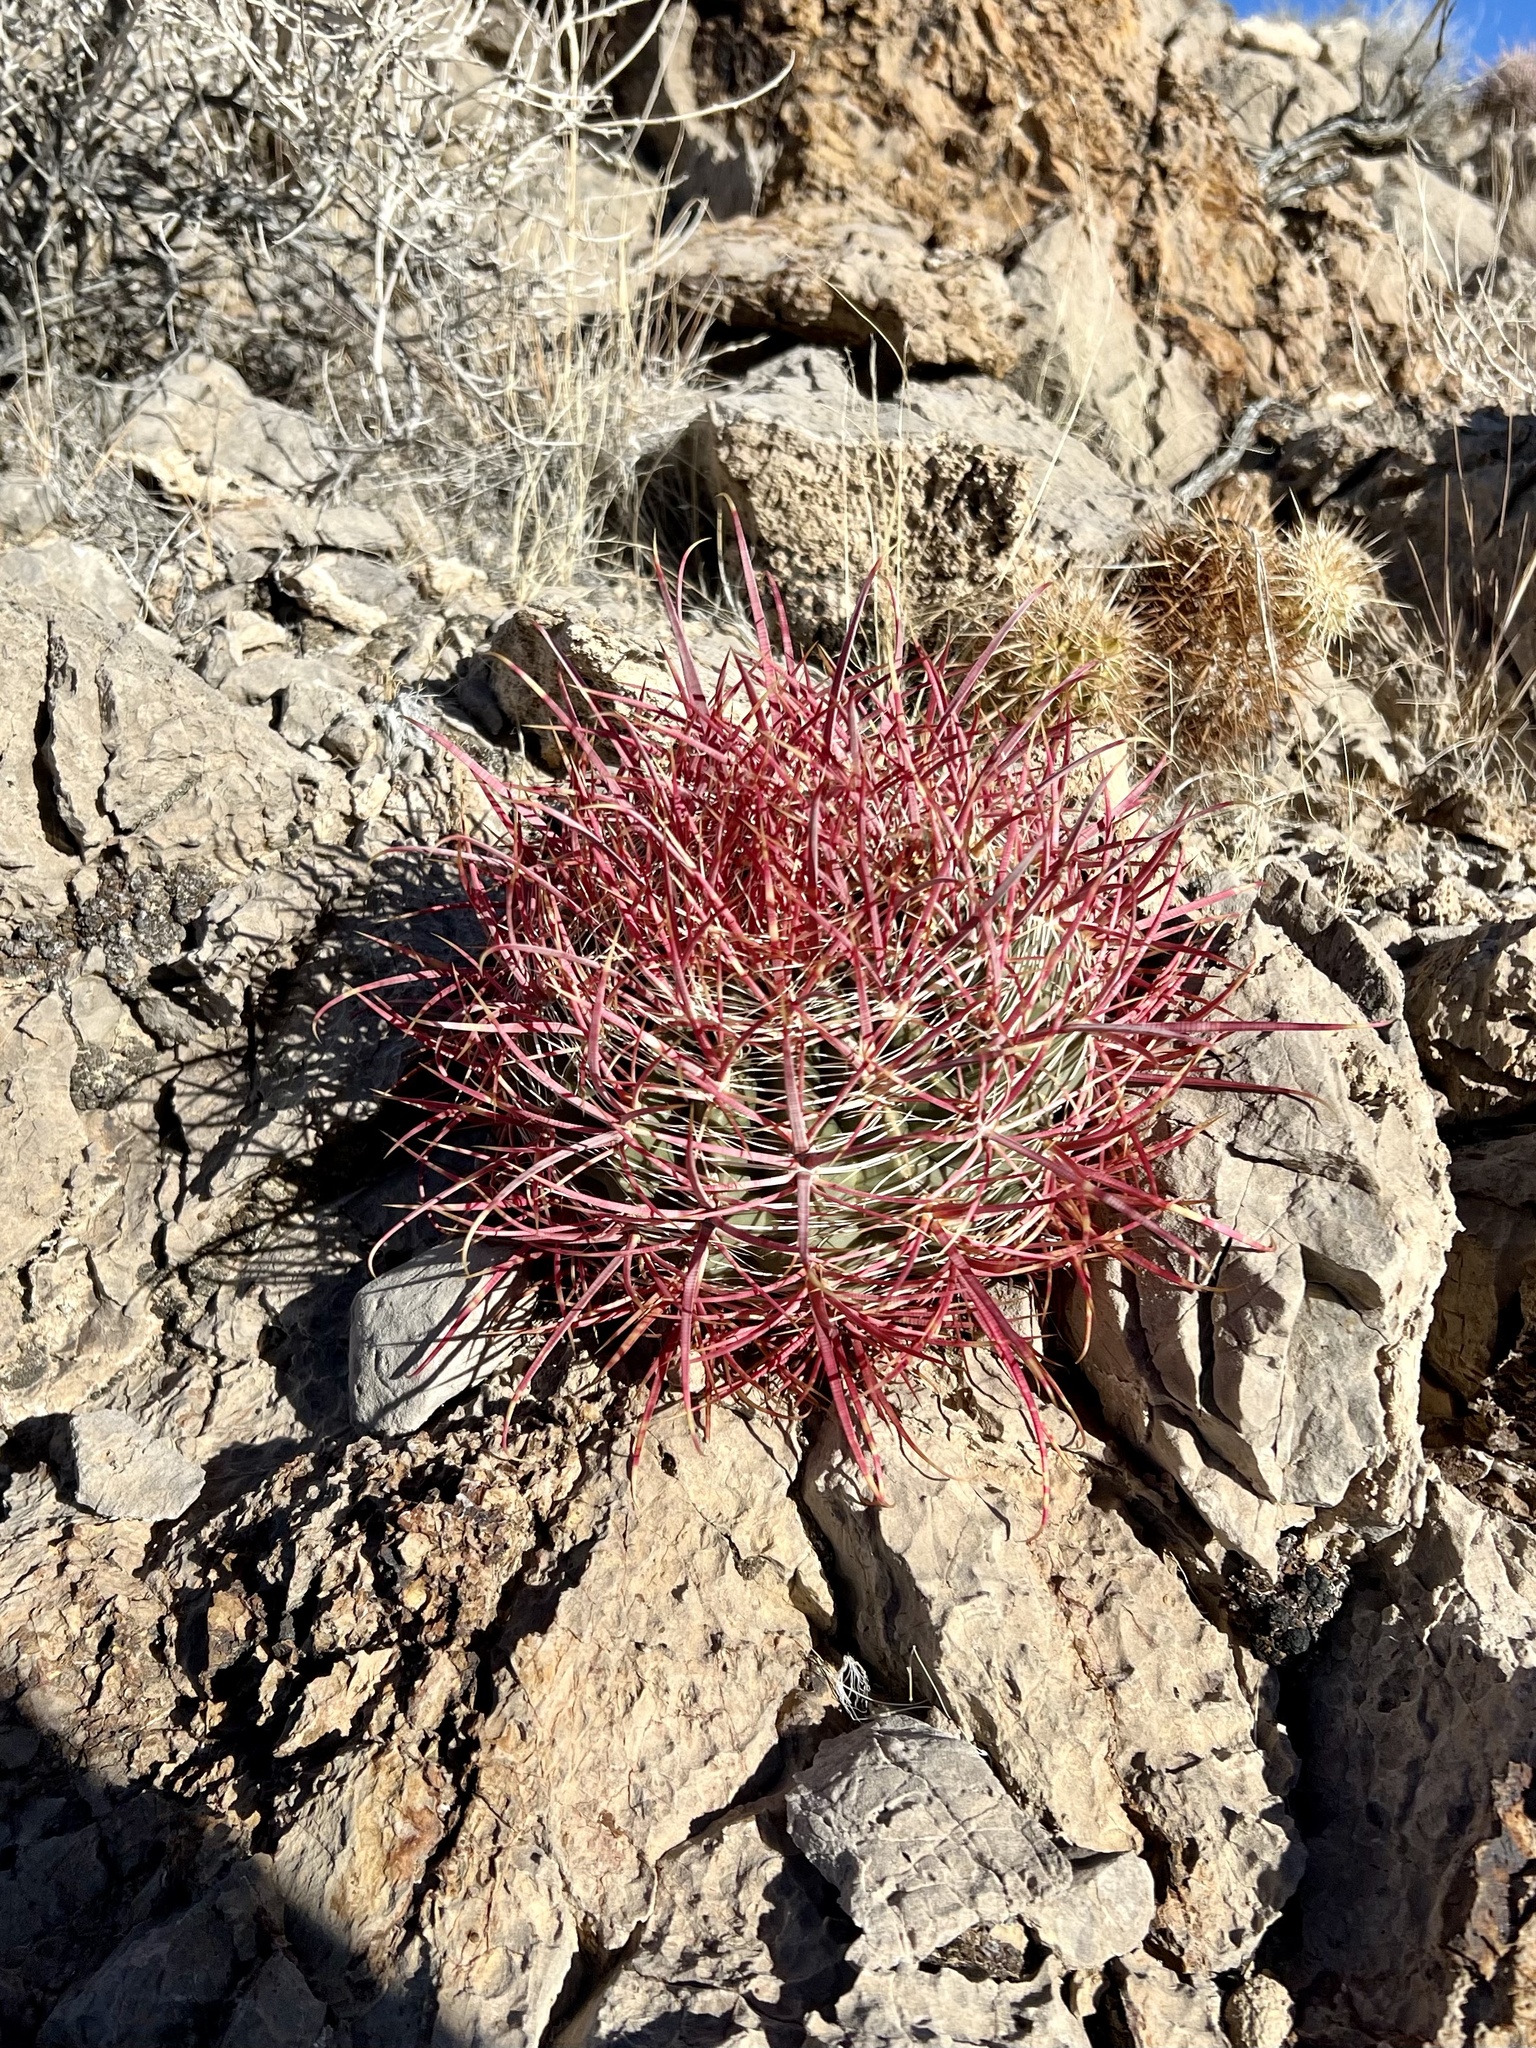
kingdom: Plantae
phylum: Tracheophyta
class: Magnoliopsida
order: Caryophyllales
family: Cactaceae
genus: Ferocactus
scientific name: Ferocactus cylindraceus
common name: California barrel cactus
